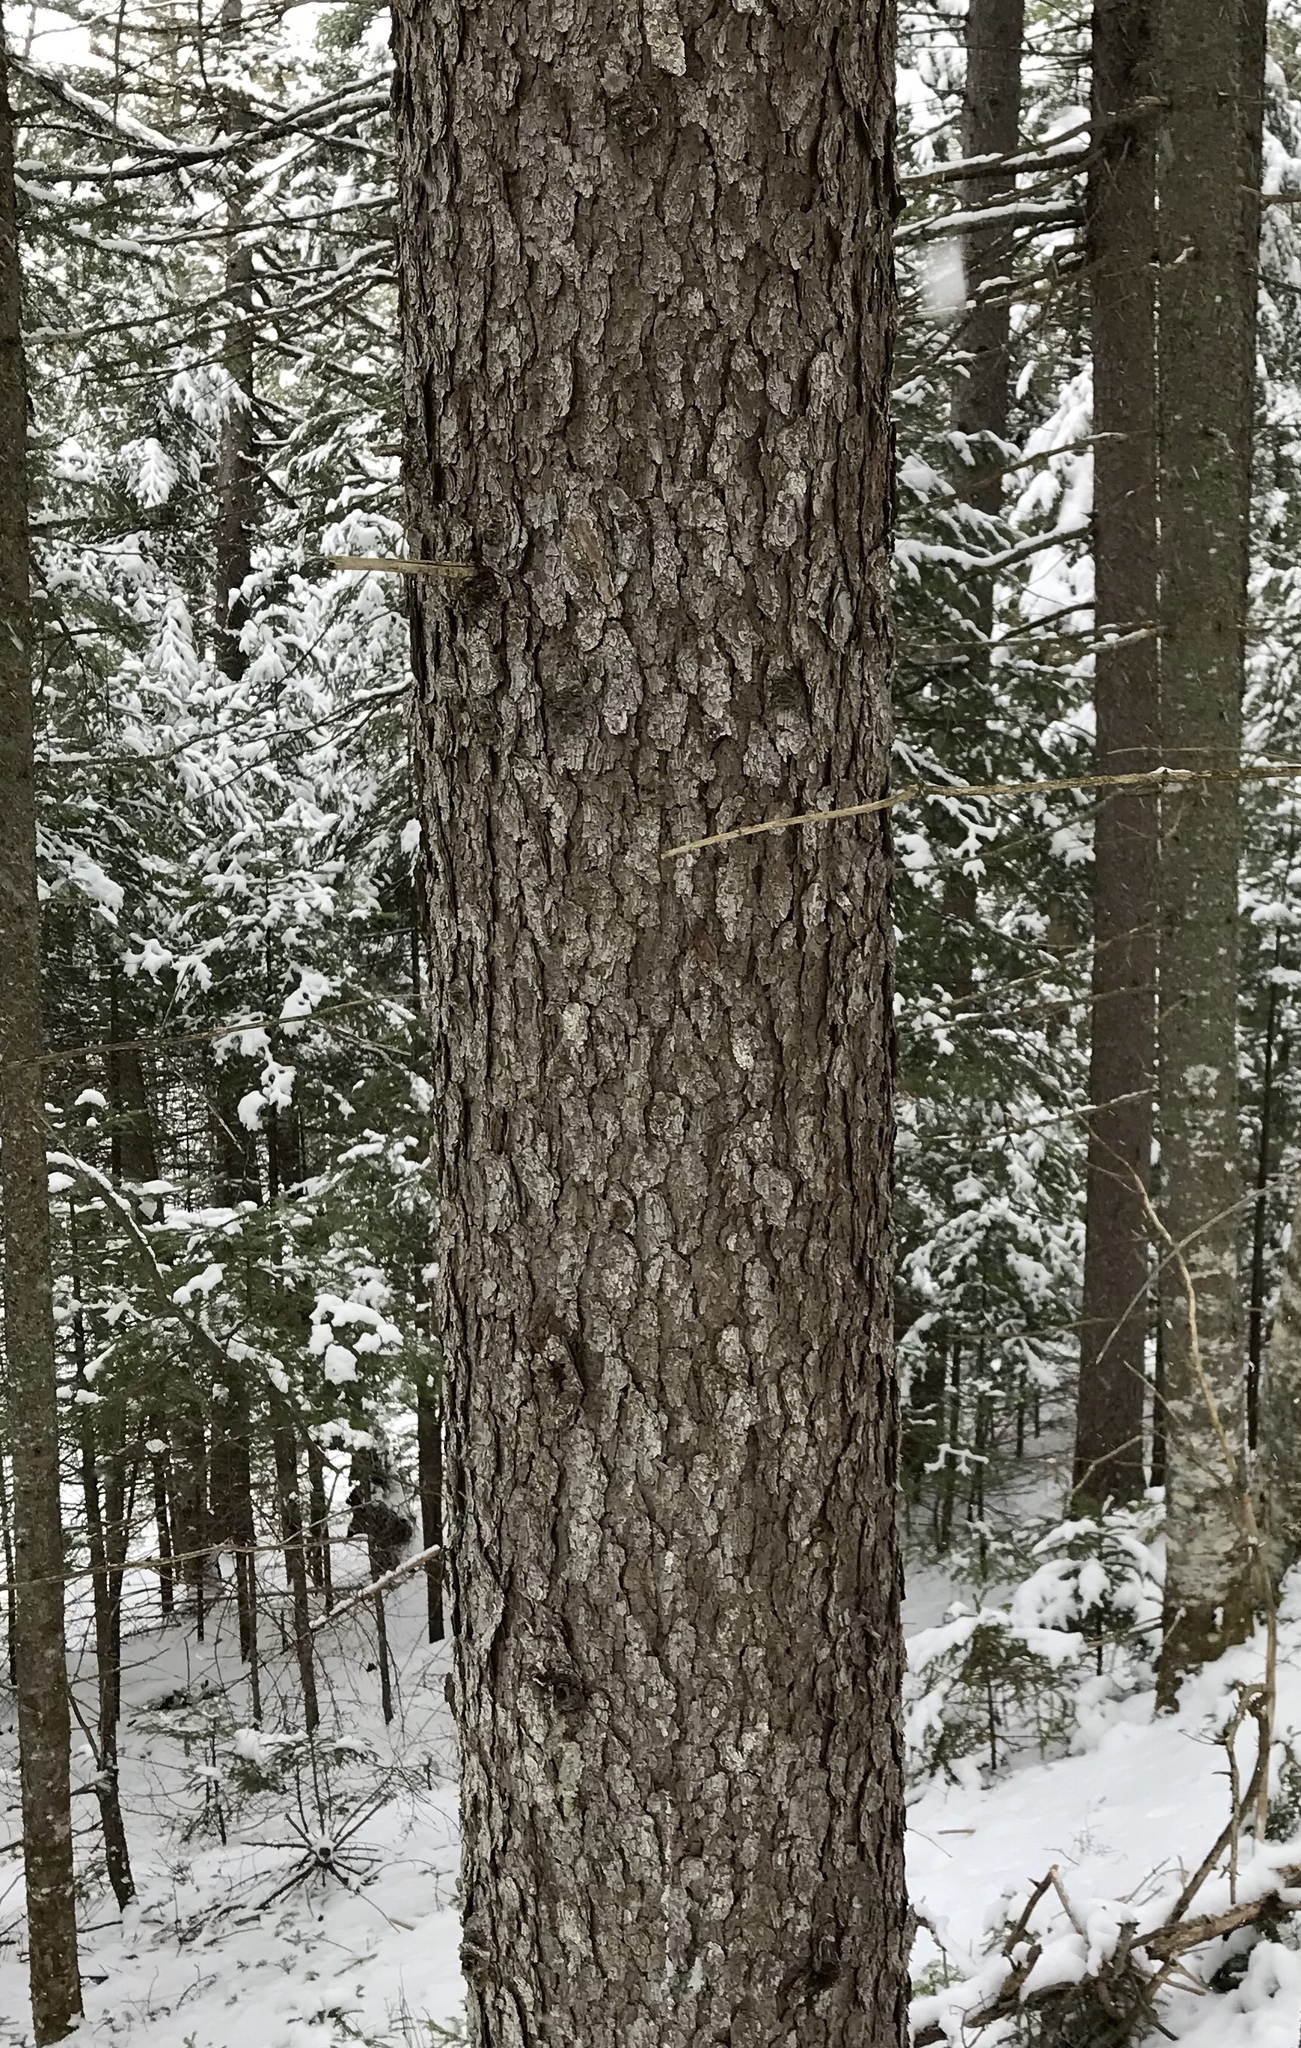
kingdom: Plantae
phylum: Tracheophyta
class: Pinopsida
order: Pinales
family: Pinaceae
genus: Picea
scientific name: Picea rubens
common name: Red spruce
